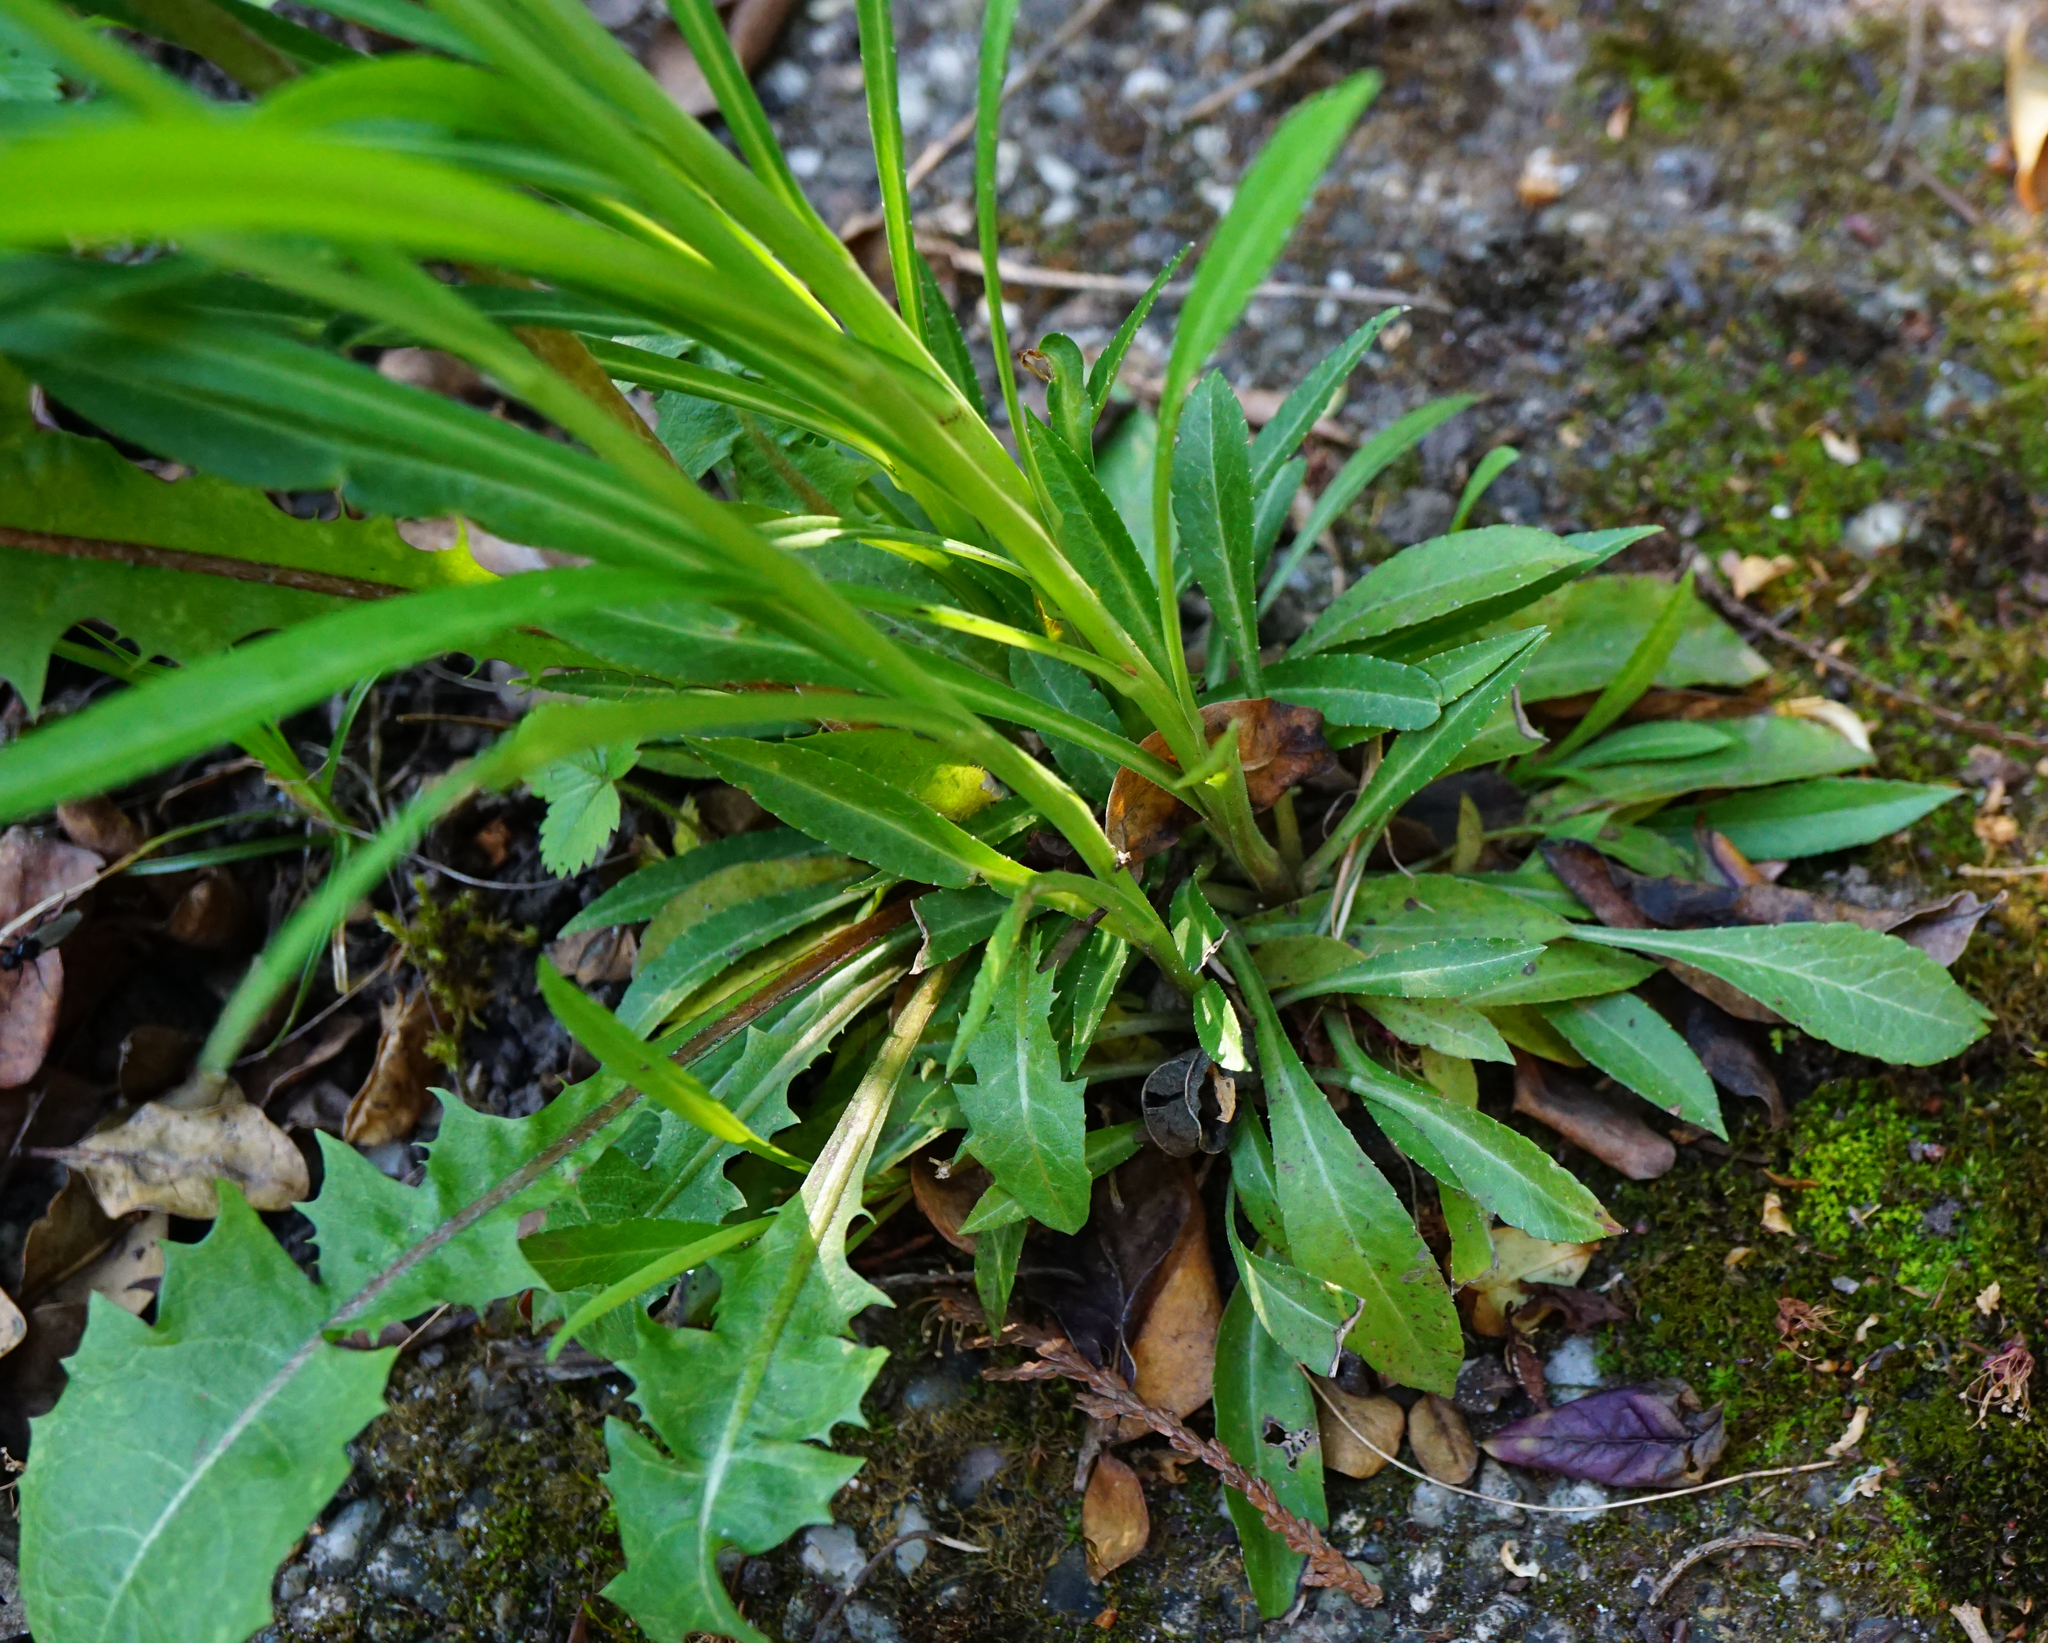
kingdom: Plantae
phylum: Tracheophyta
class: Magnoliopsida
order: Asterales
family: Campanulaceae
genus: Campanula
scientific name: Campanula persicifolia
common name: Peach-leaved bellflower
